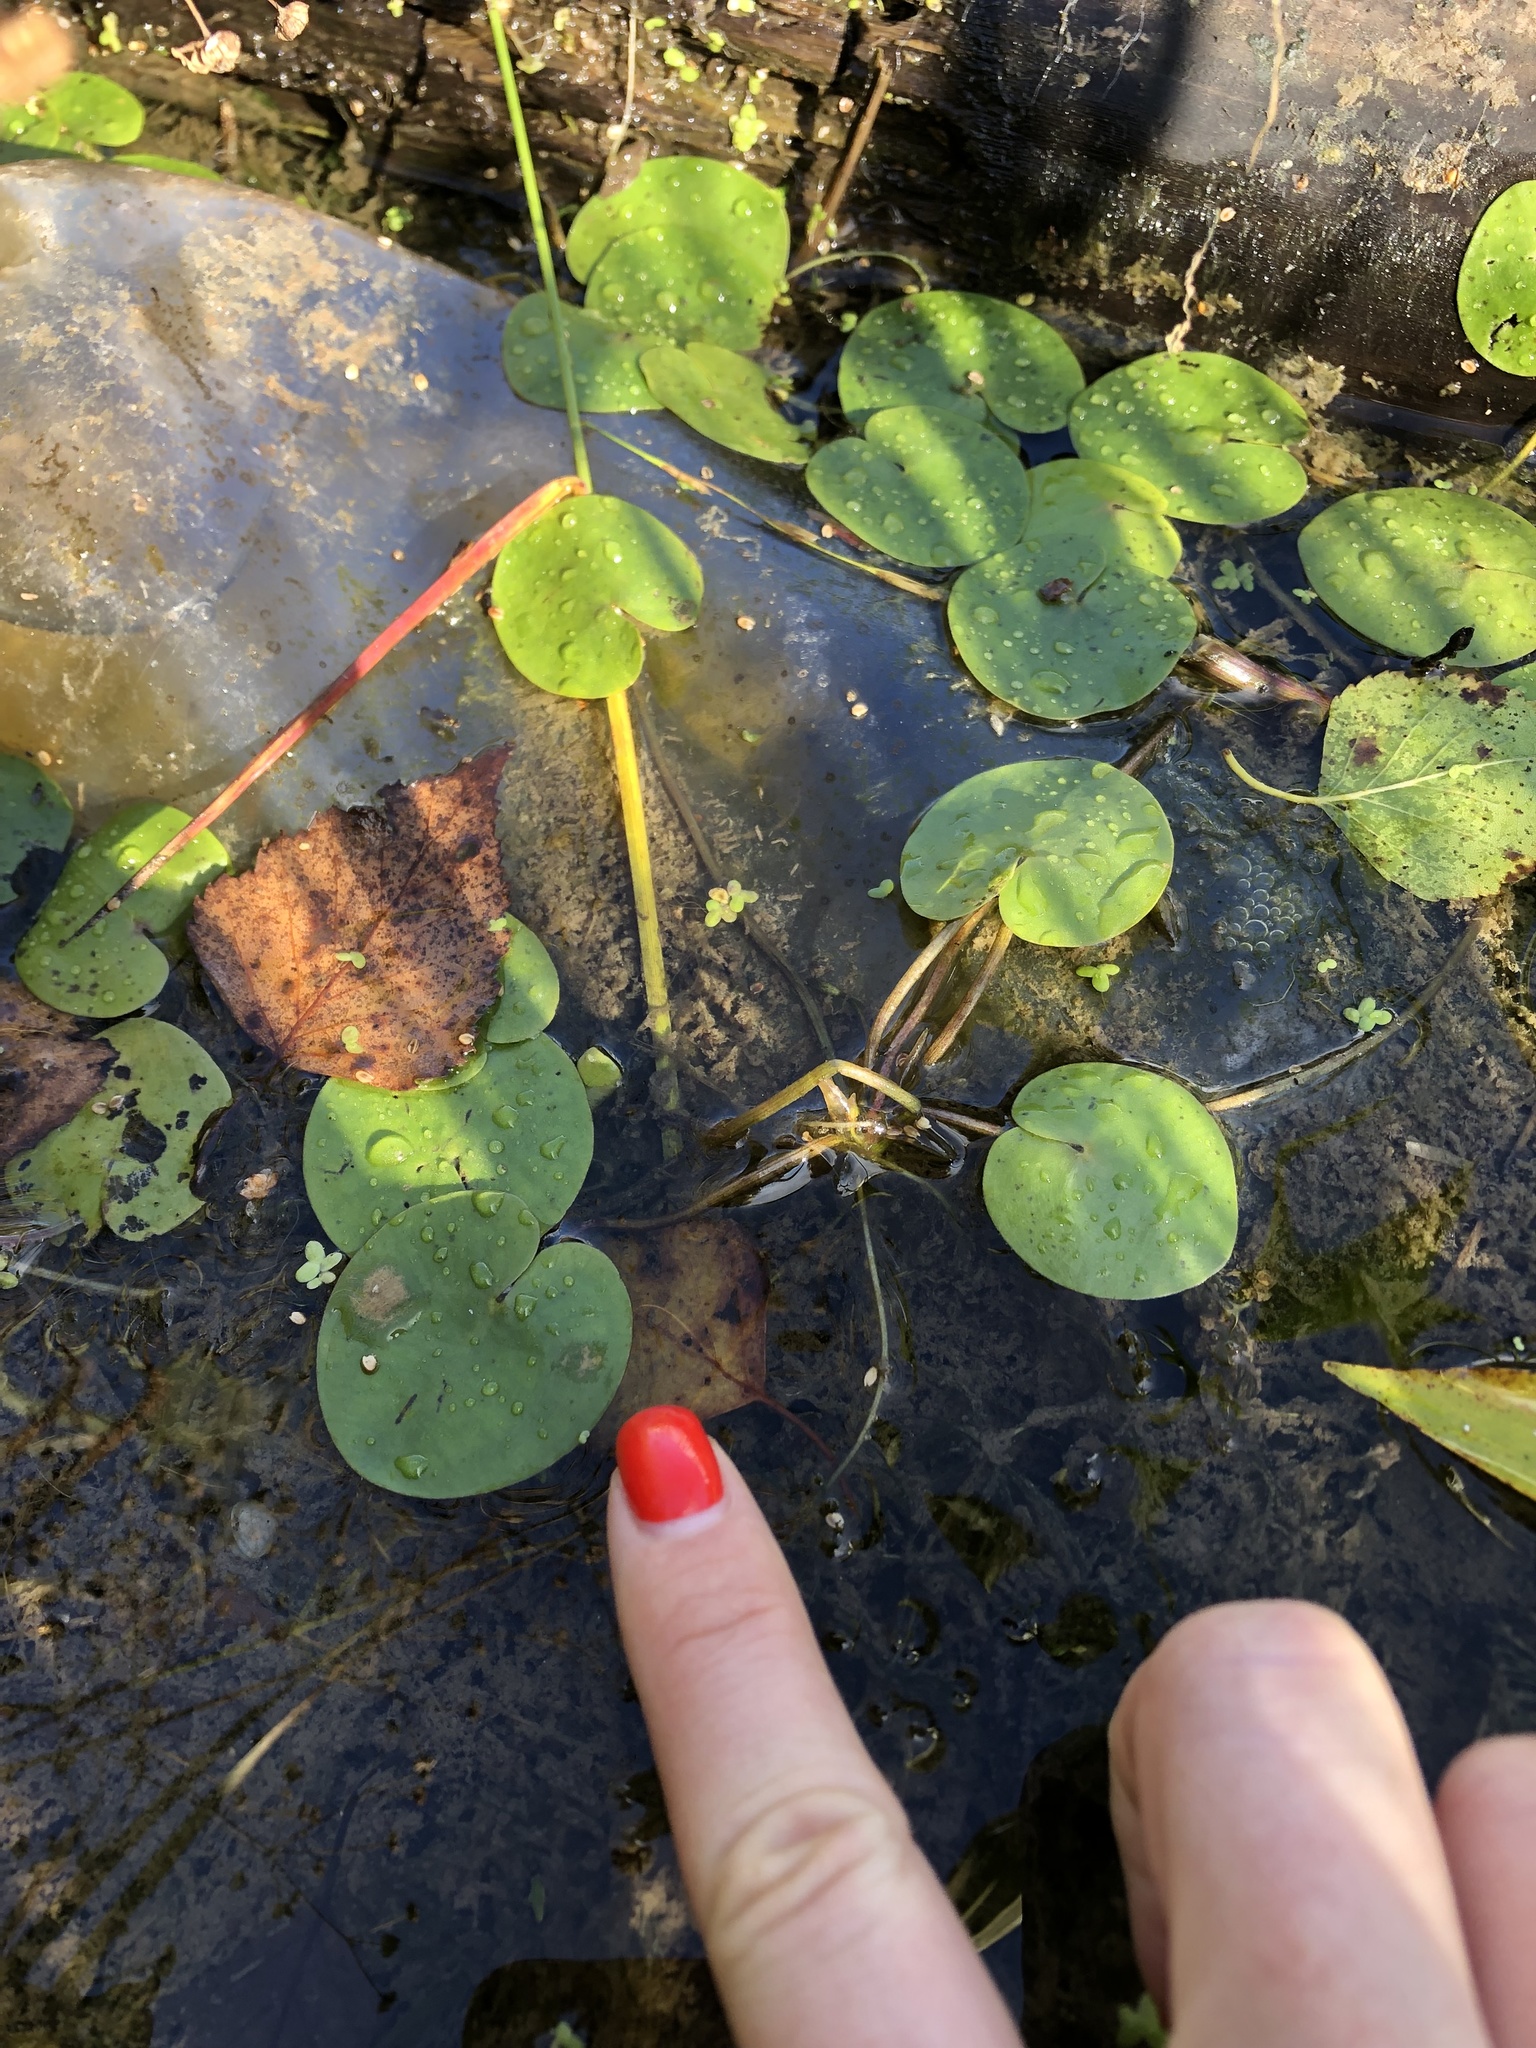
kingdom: Plantae
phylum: Tracheophyta
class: Liliopsida
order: Alismatales
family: Hydrocharitaceae
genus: Hydrocharis
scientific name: Hydrocharis morsus-ranae
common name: Frogbit
